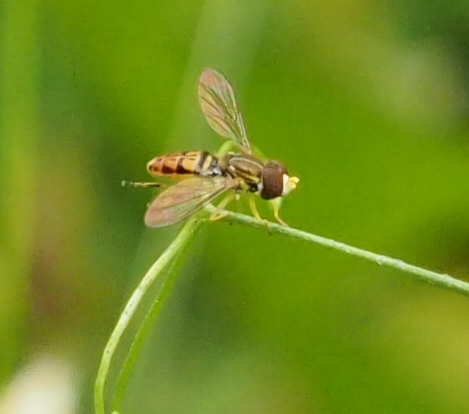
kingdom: Animalia
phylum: Arthropoda
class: Insecta
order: Diptera
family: Syrphidae
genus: Toxomerus
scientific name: Toxomerus marginatus
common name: Syrphid fly
